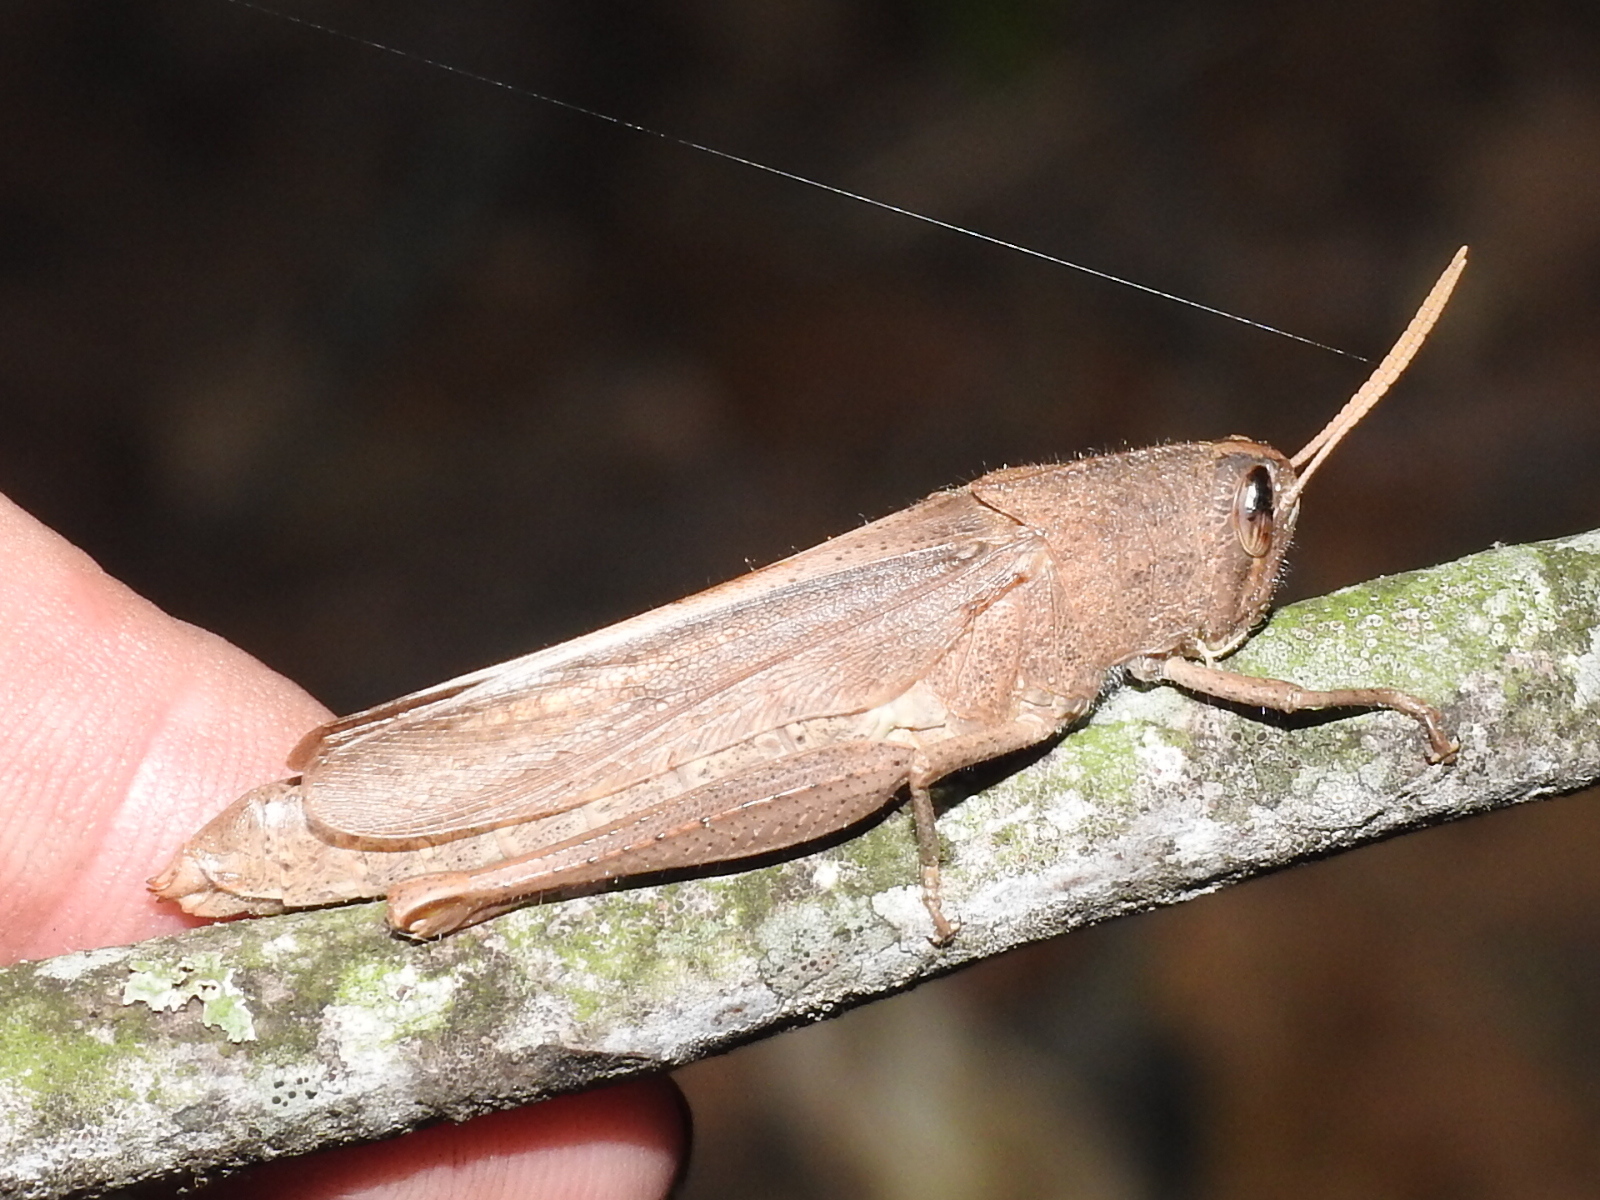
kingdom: Animalia
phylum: Arthropoda
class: Insecta
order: Orthoptera
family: Acrididae
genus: Schistocerca
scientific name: Schistocerca damnifica
